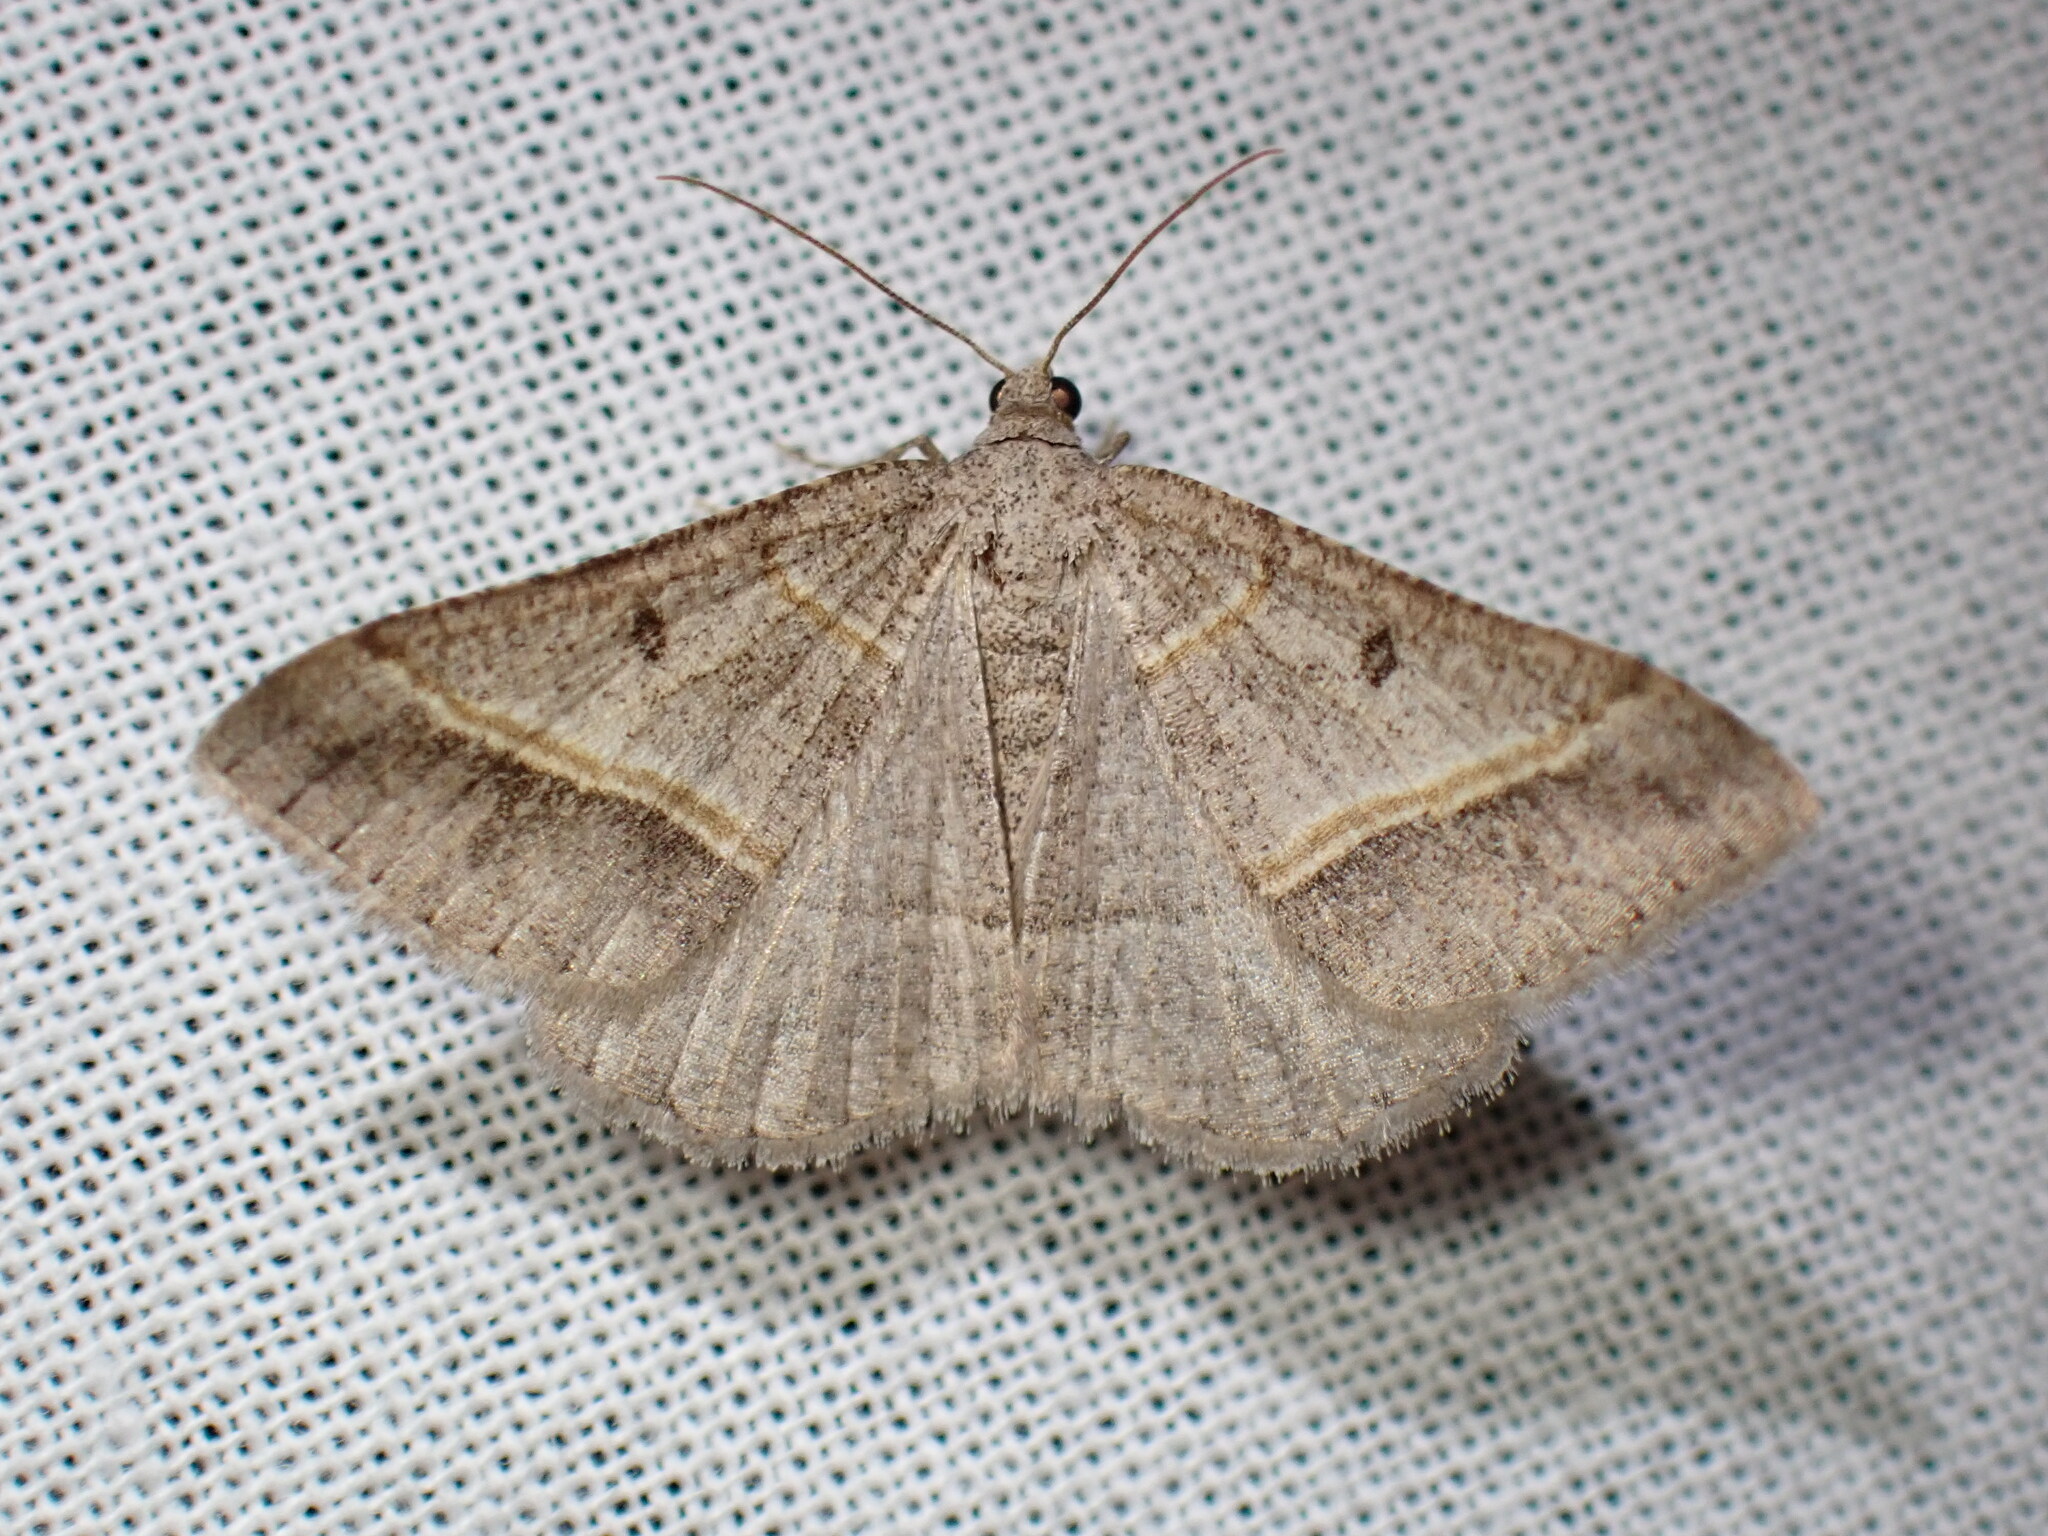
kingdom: Animalia
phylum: Arthropoda
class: Insecta
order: Lepidoptera
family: Geometridae
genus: Digrammia
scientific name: Digrammia neptaria
